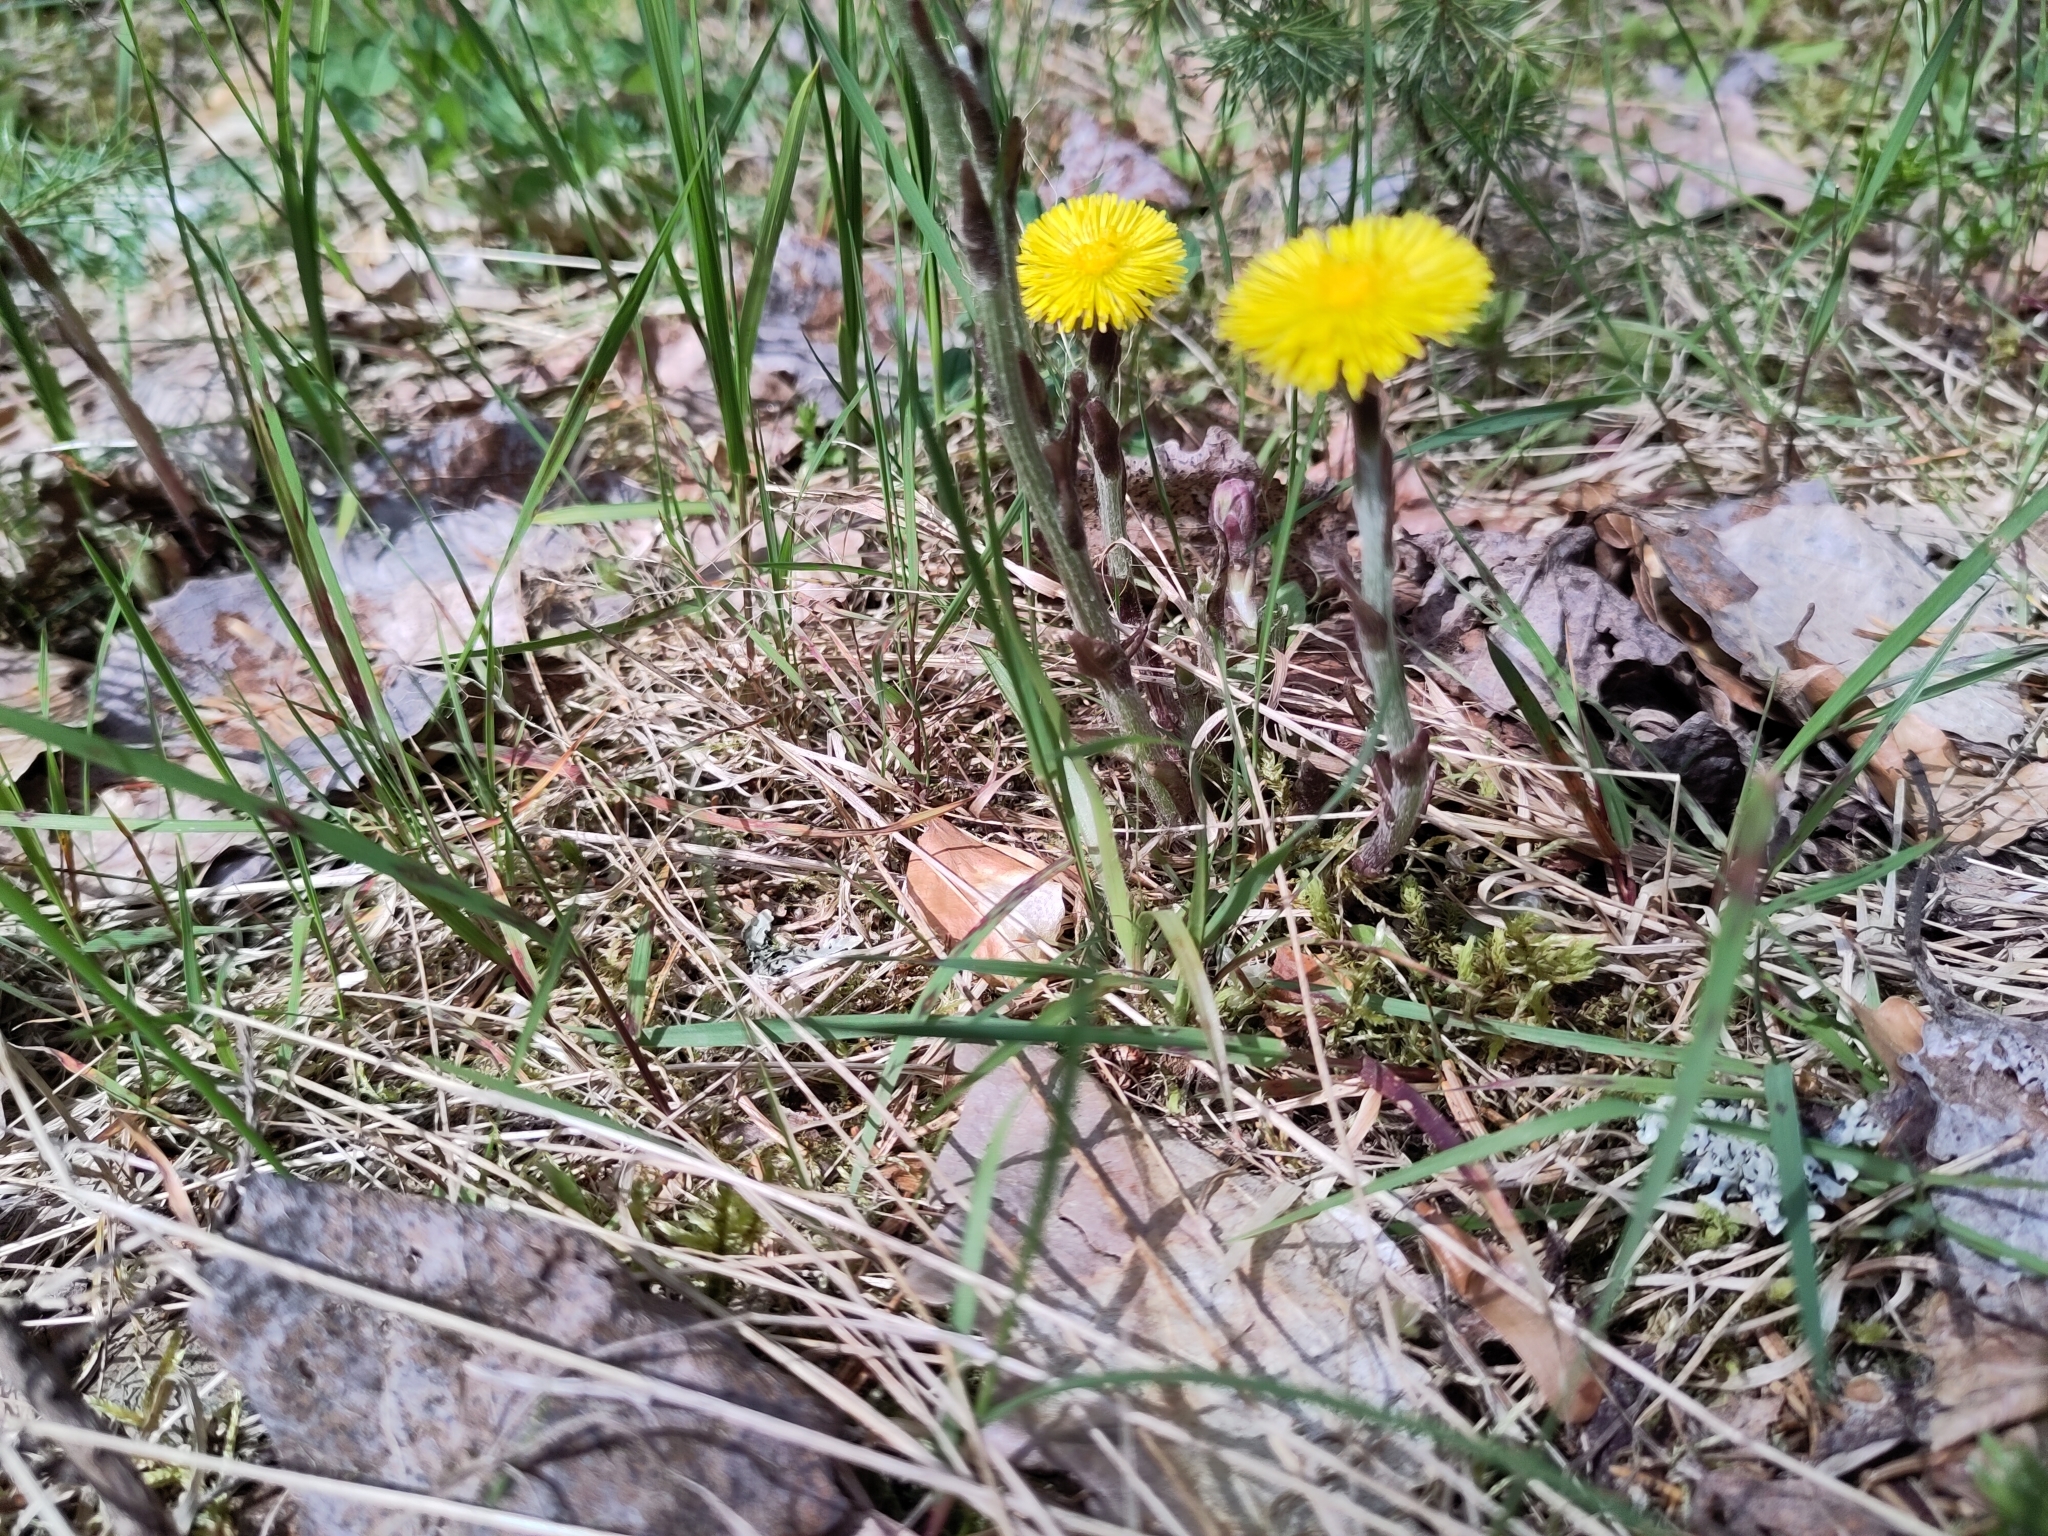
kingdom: Plantae
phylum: Tracheophyta
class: Magnoliopsida
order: Asterales
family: Asteraceae
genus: Tussilago
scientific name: Tussilago farfara
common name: Coltsfoot
